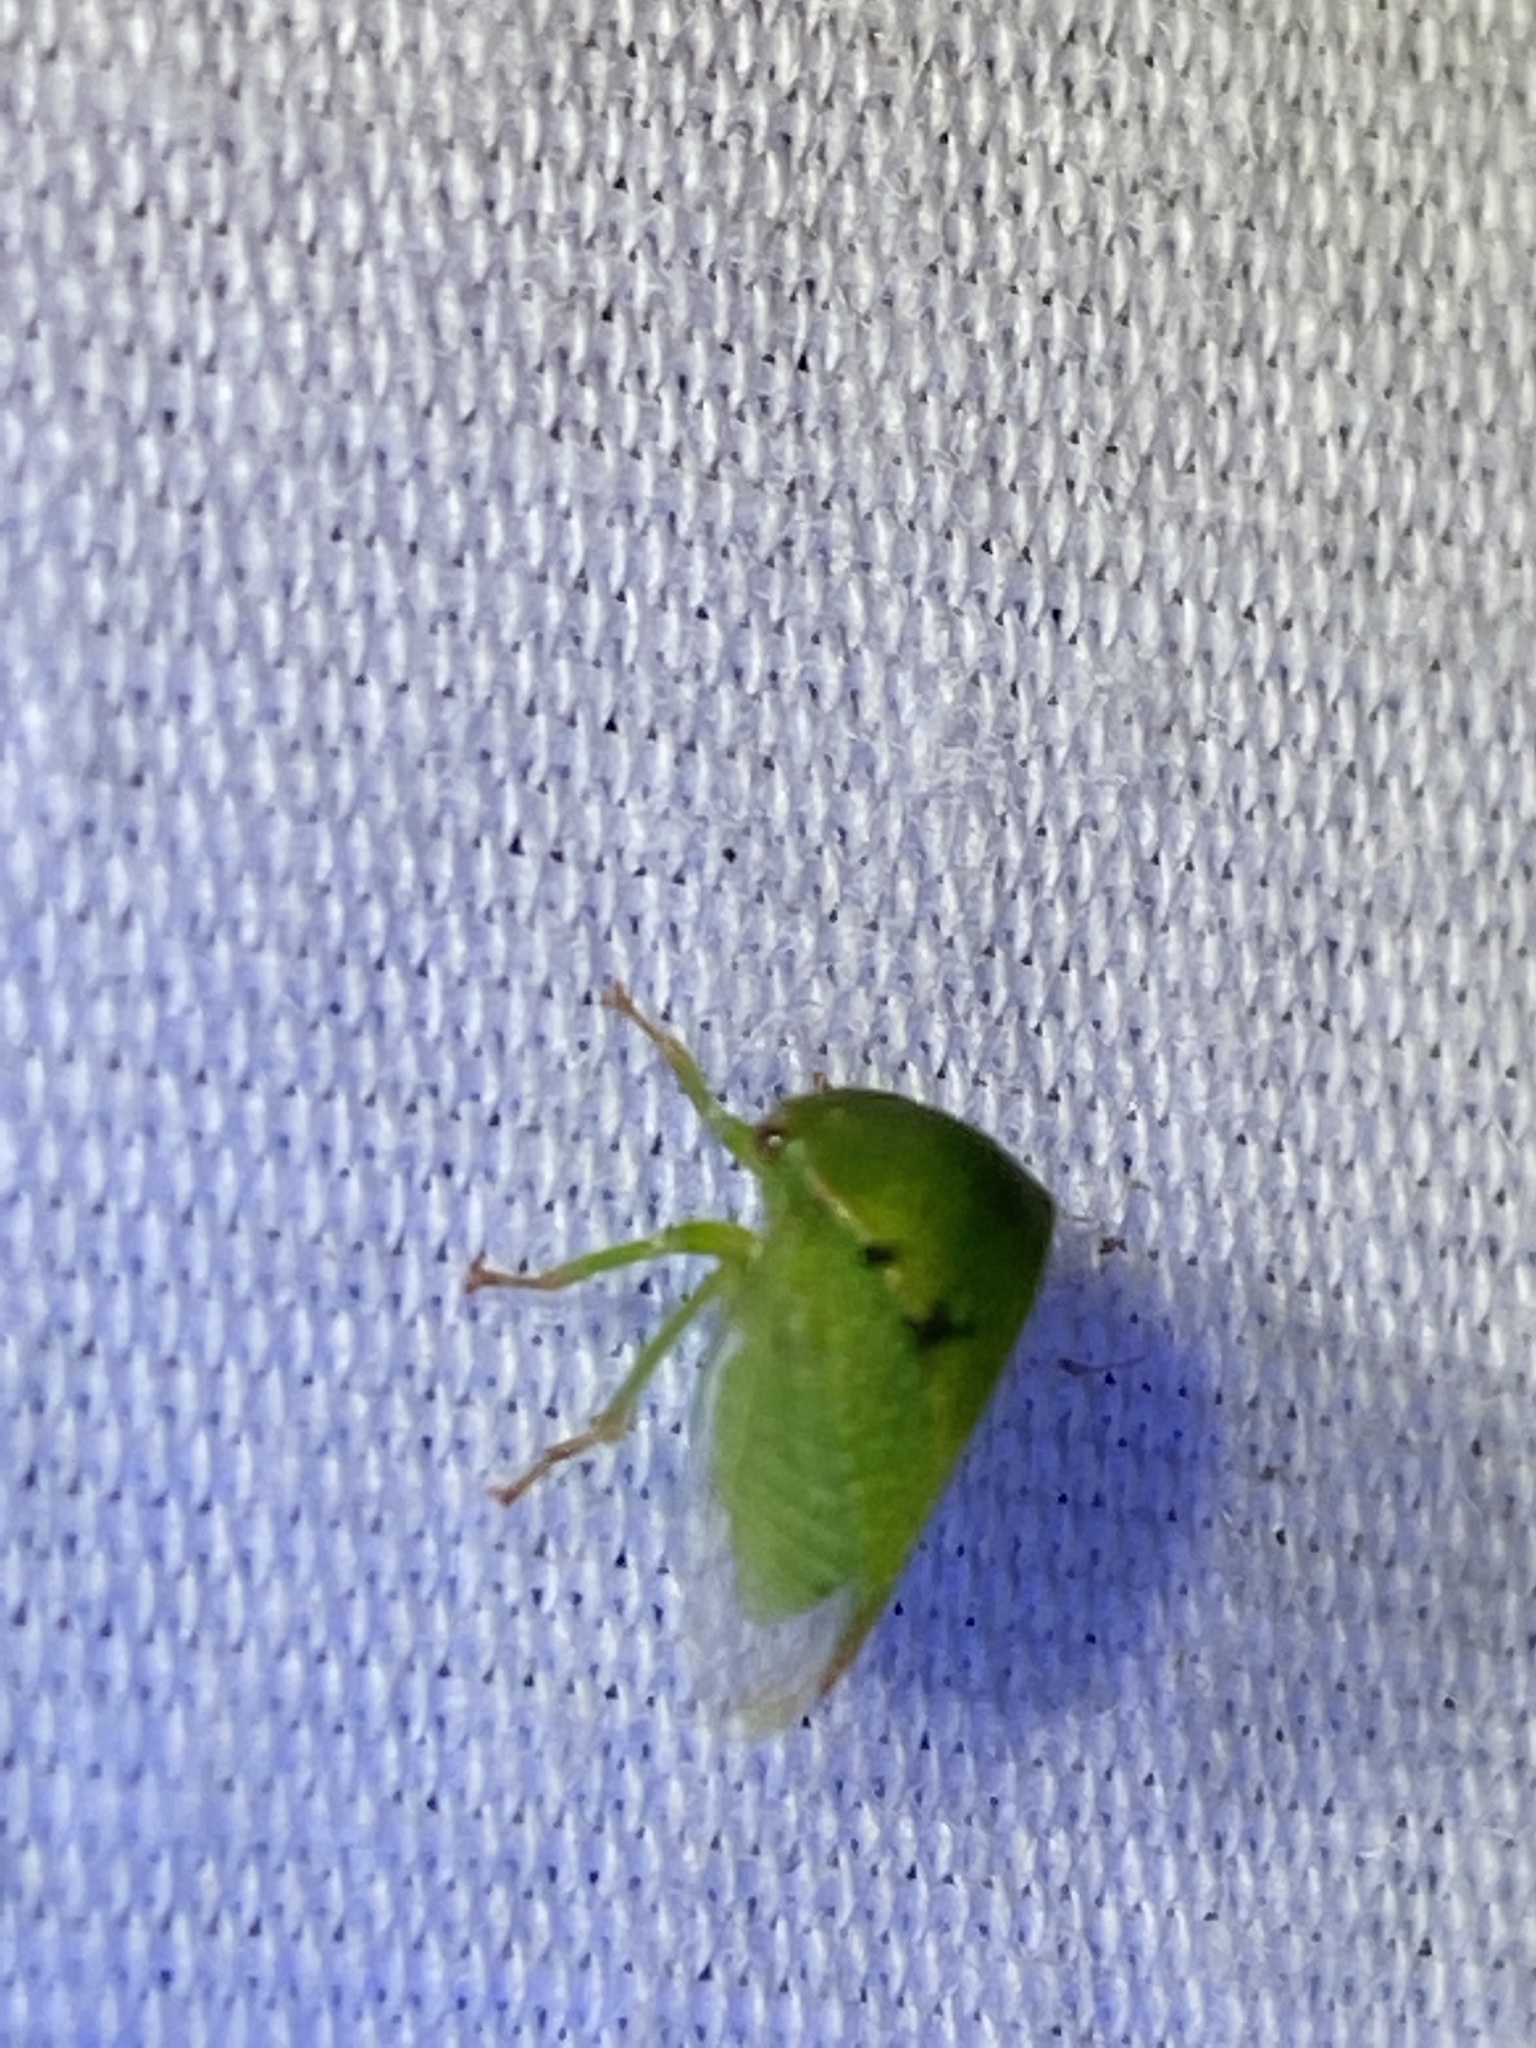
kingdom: Animalia
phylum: Arthropoda
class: Insecta
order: Hemiptera
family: Membracidae
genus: Spissistilus
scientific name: Spissistilus festina
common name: Membracid bug
